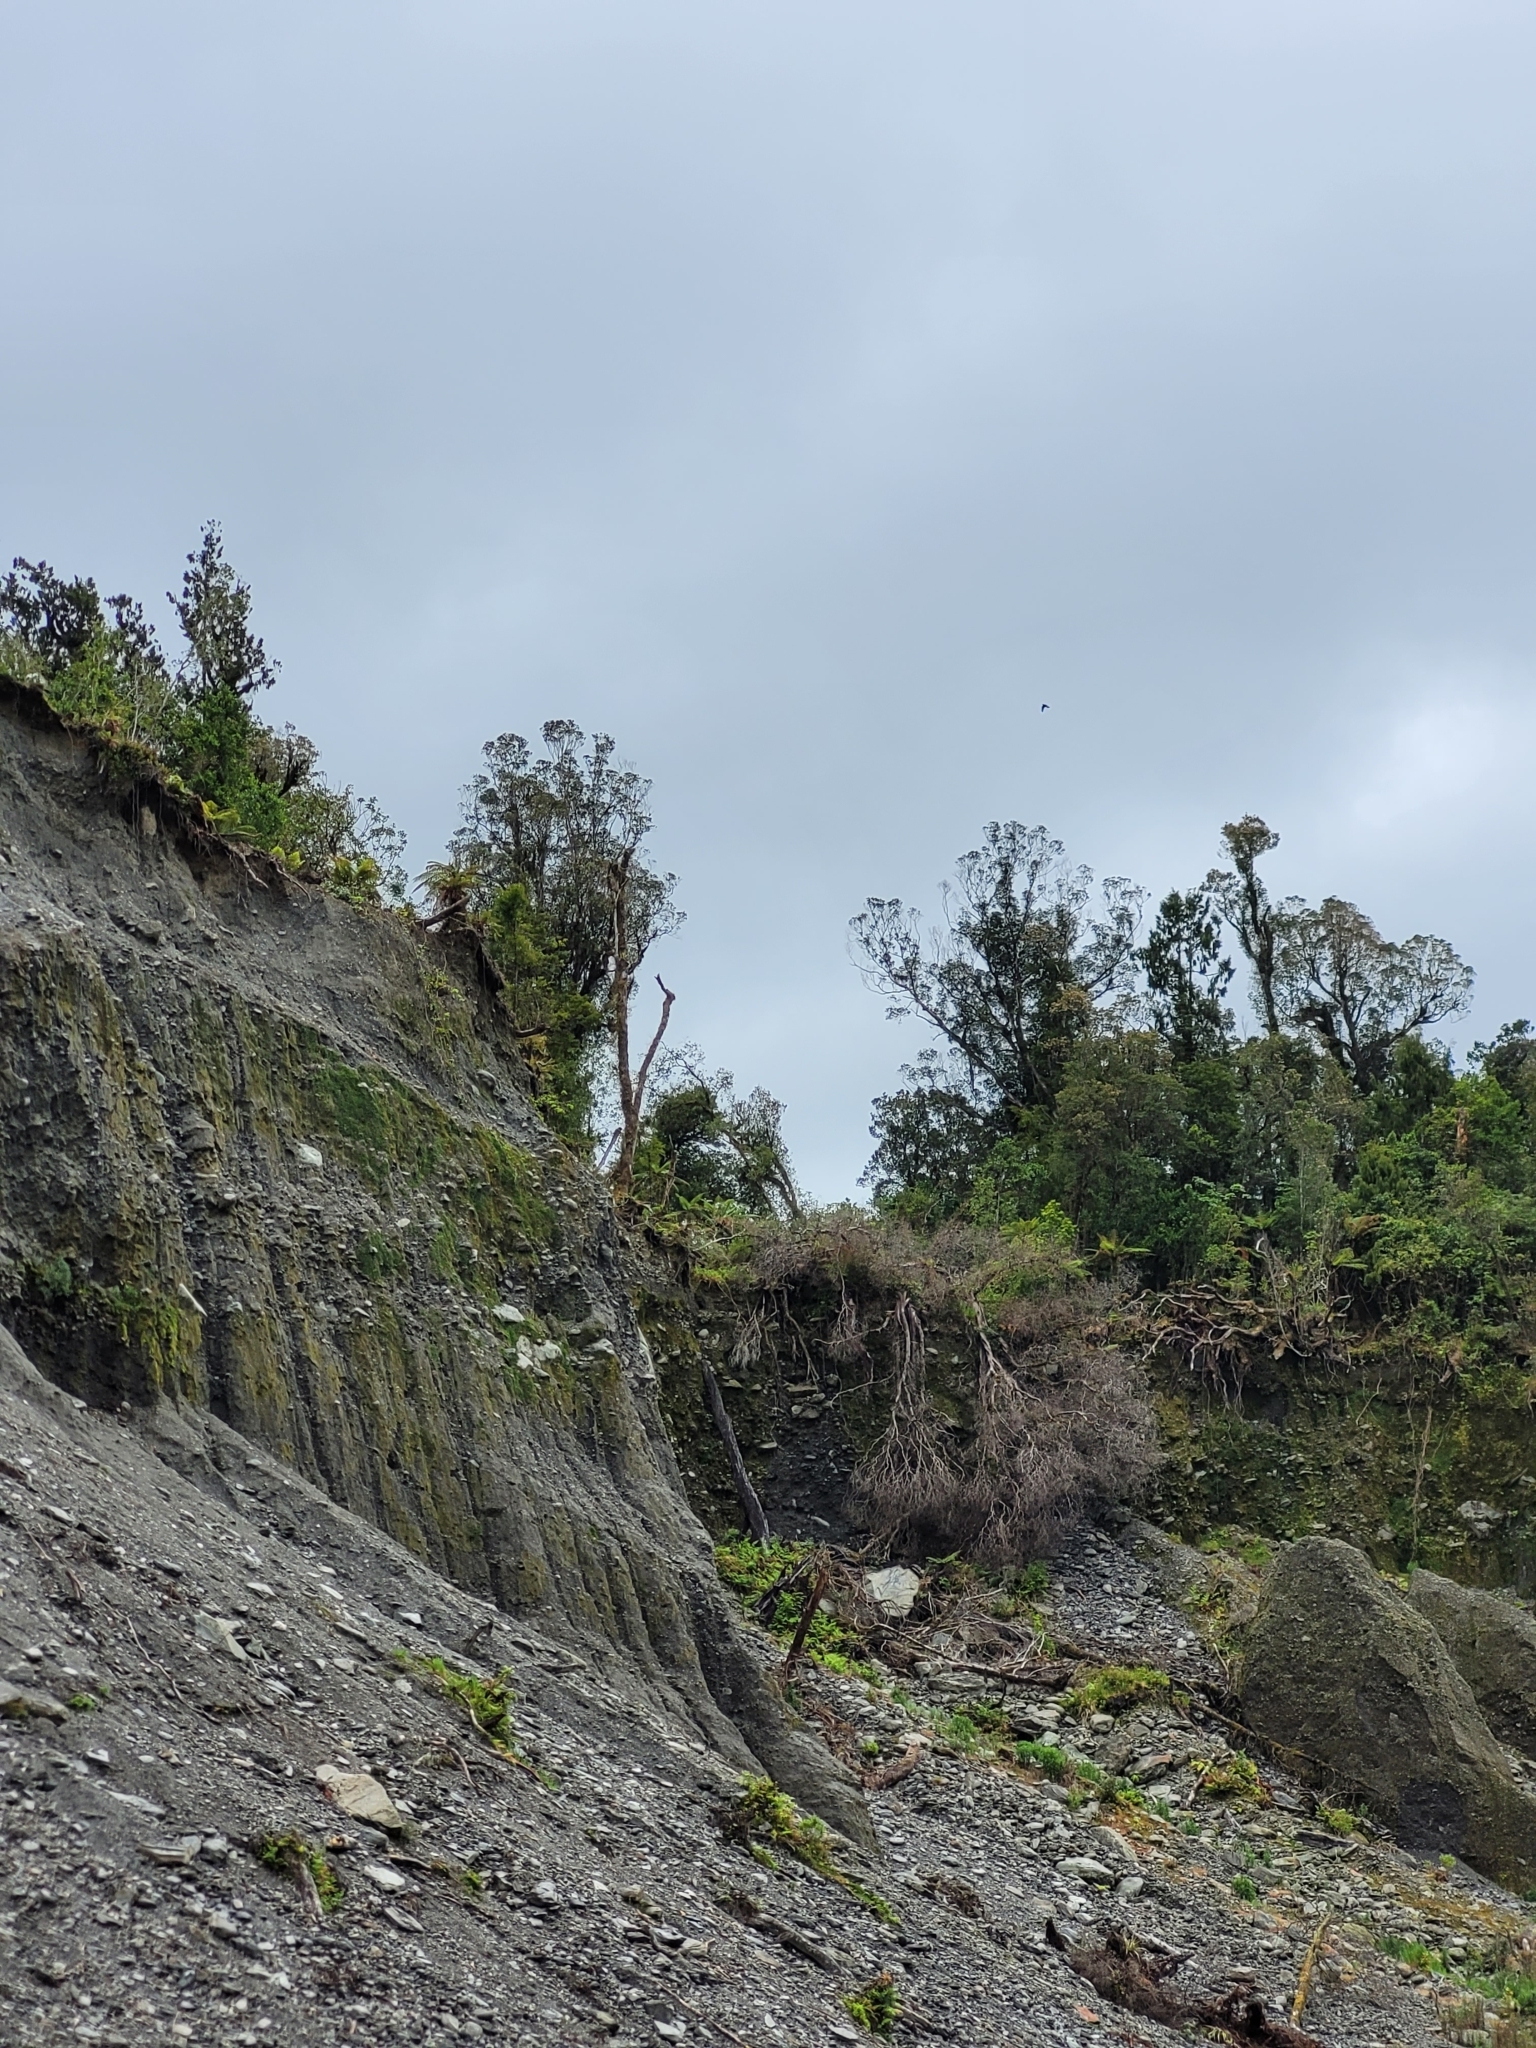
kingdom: Animalia
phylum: Chordata
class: Aves
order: Falconiformes
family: Falconidae
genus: Falco
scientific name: Falco novaeseelandiae
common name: New zealand falcon
